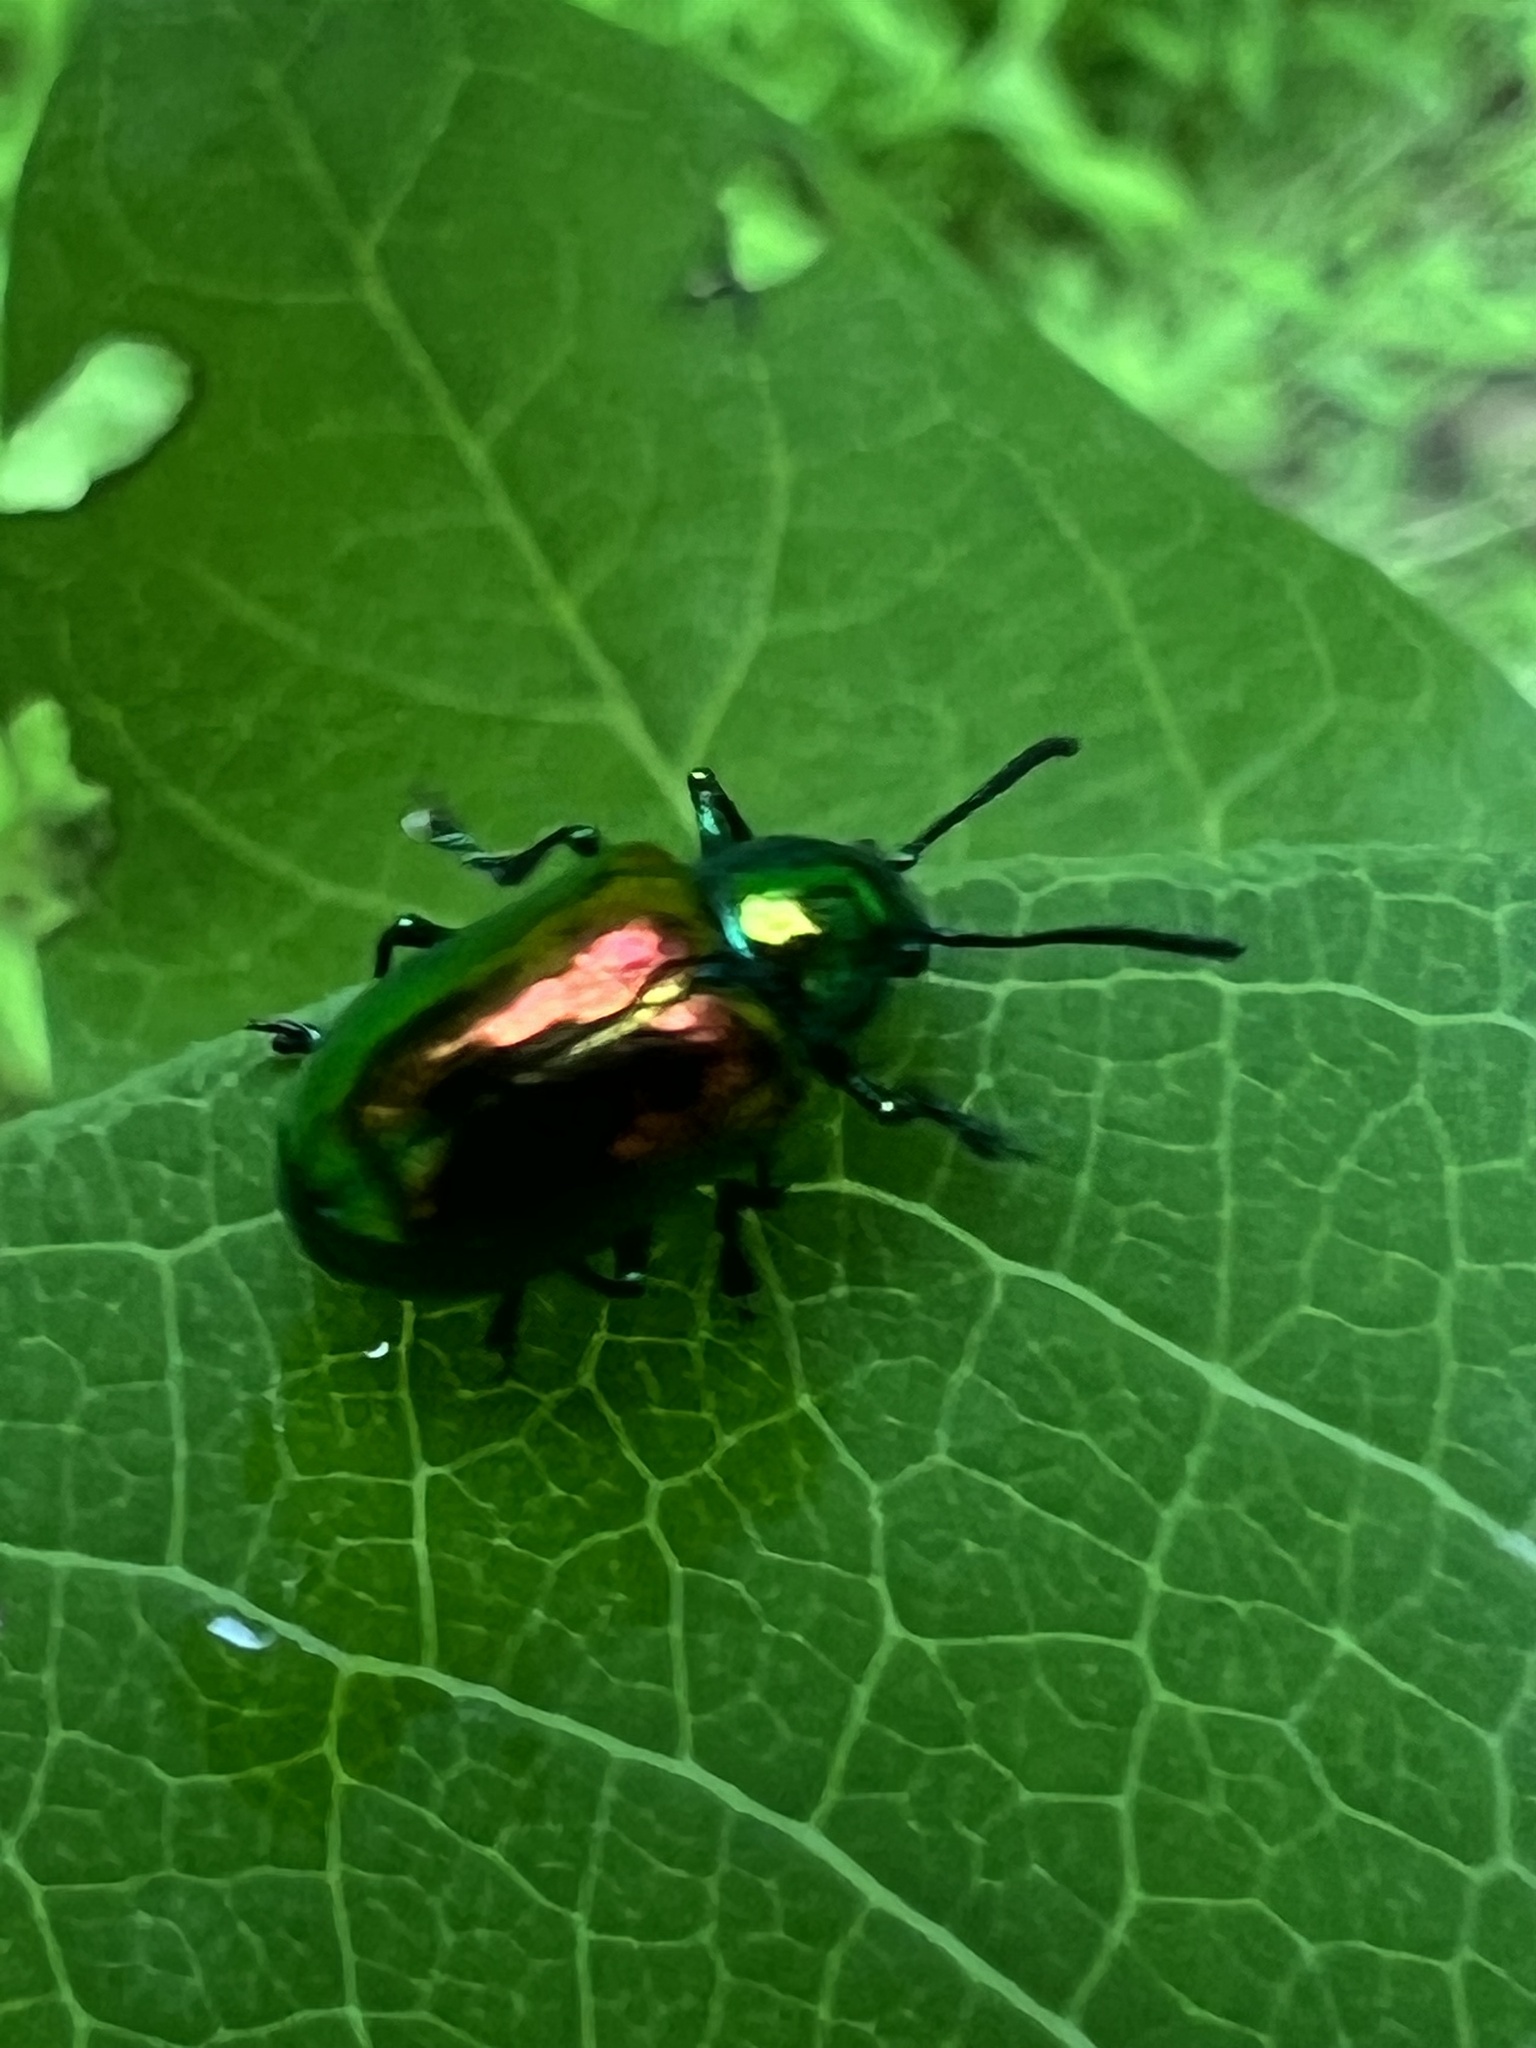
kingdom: Animalia
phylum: Arthropoda
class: Insecta
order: Coleoptera
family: Chrysomelidae
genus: Chrysochus
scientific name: Chrysochus auratus
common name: Dogbane leaf beetle
